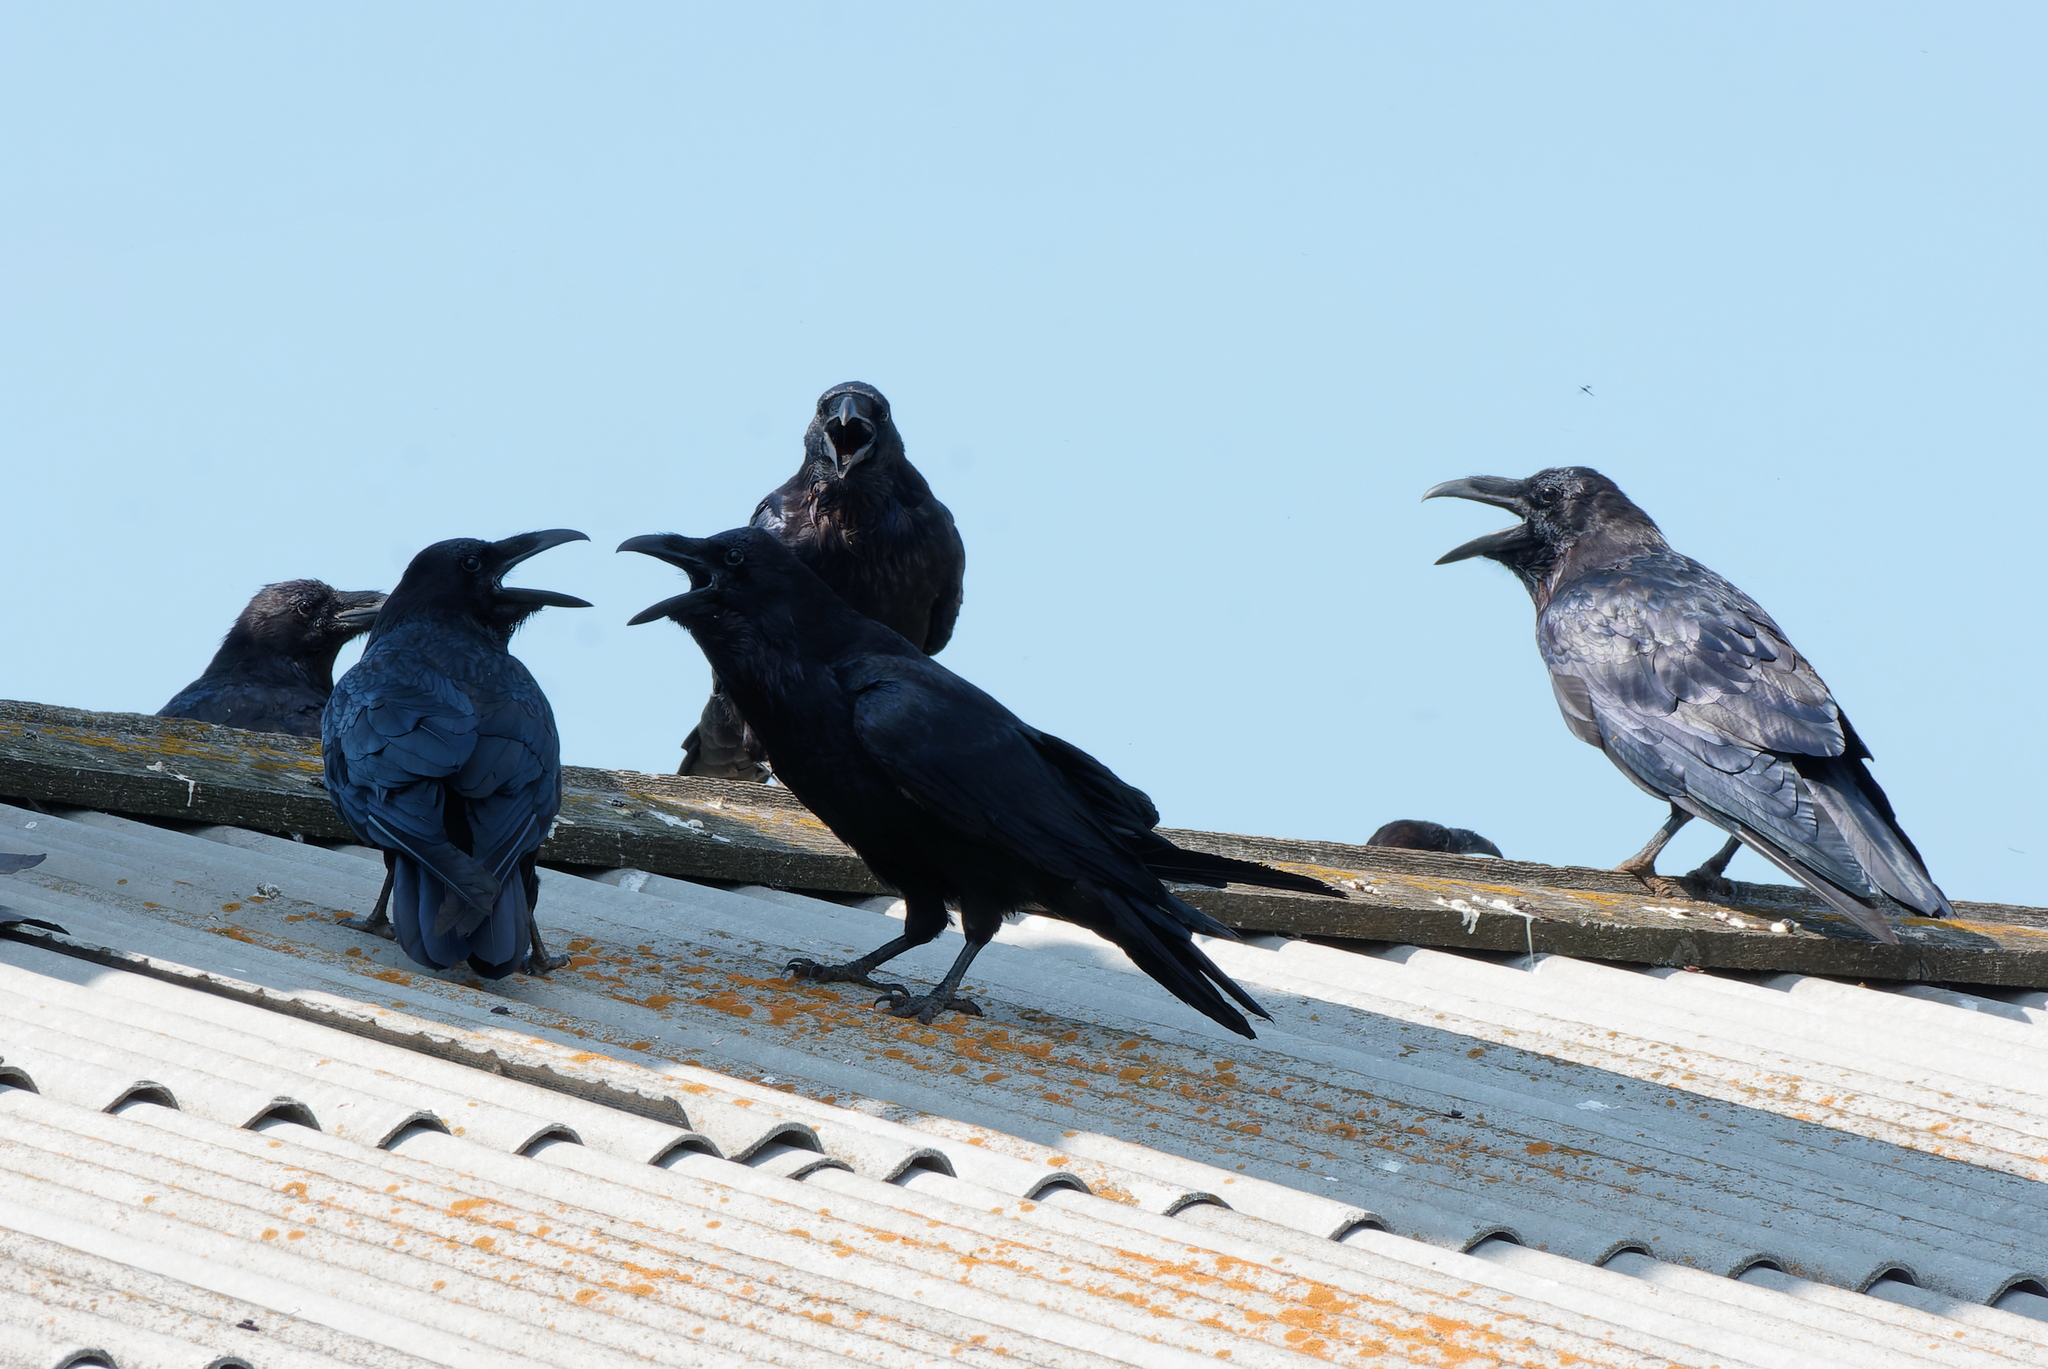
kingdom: Animalia
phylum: Chordata
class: Aves
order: Passeriformes
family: Corvidae
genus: Corvus
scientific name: Corvus corax
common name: Common raven
